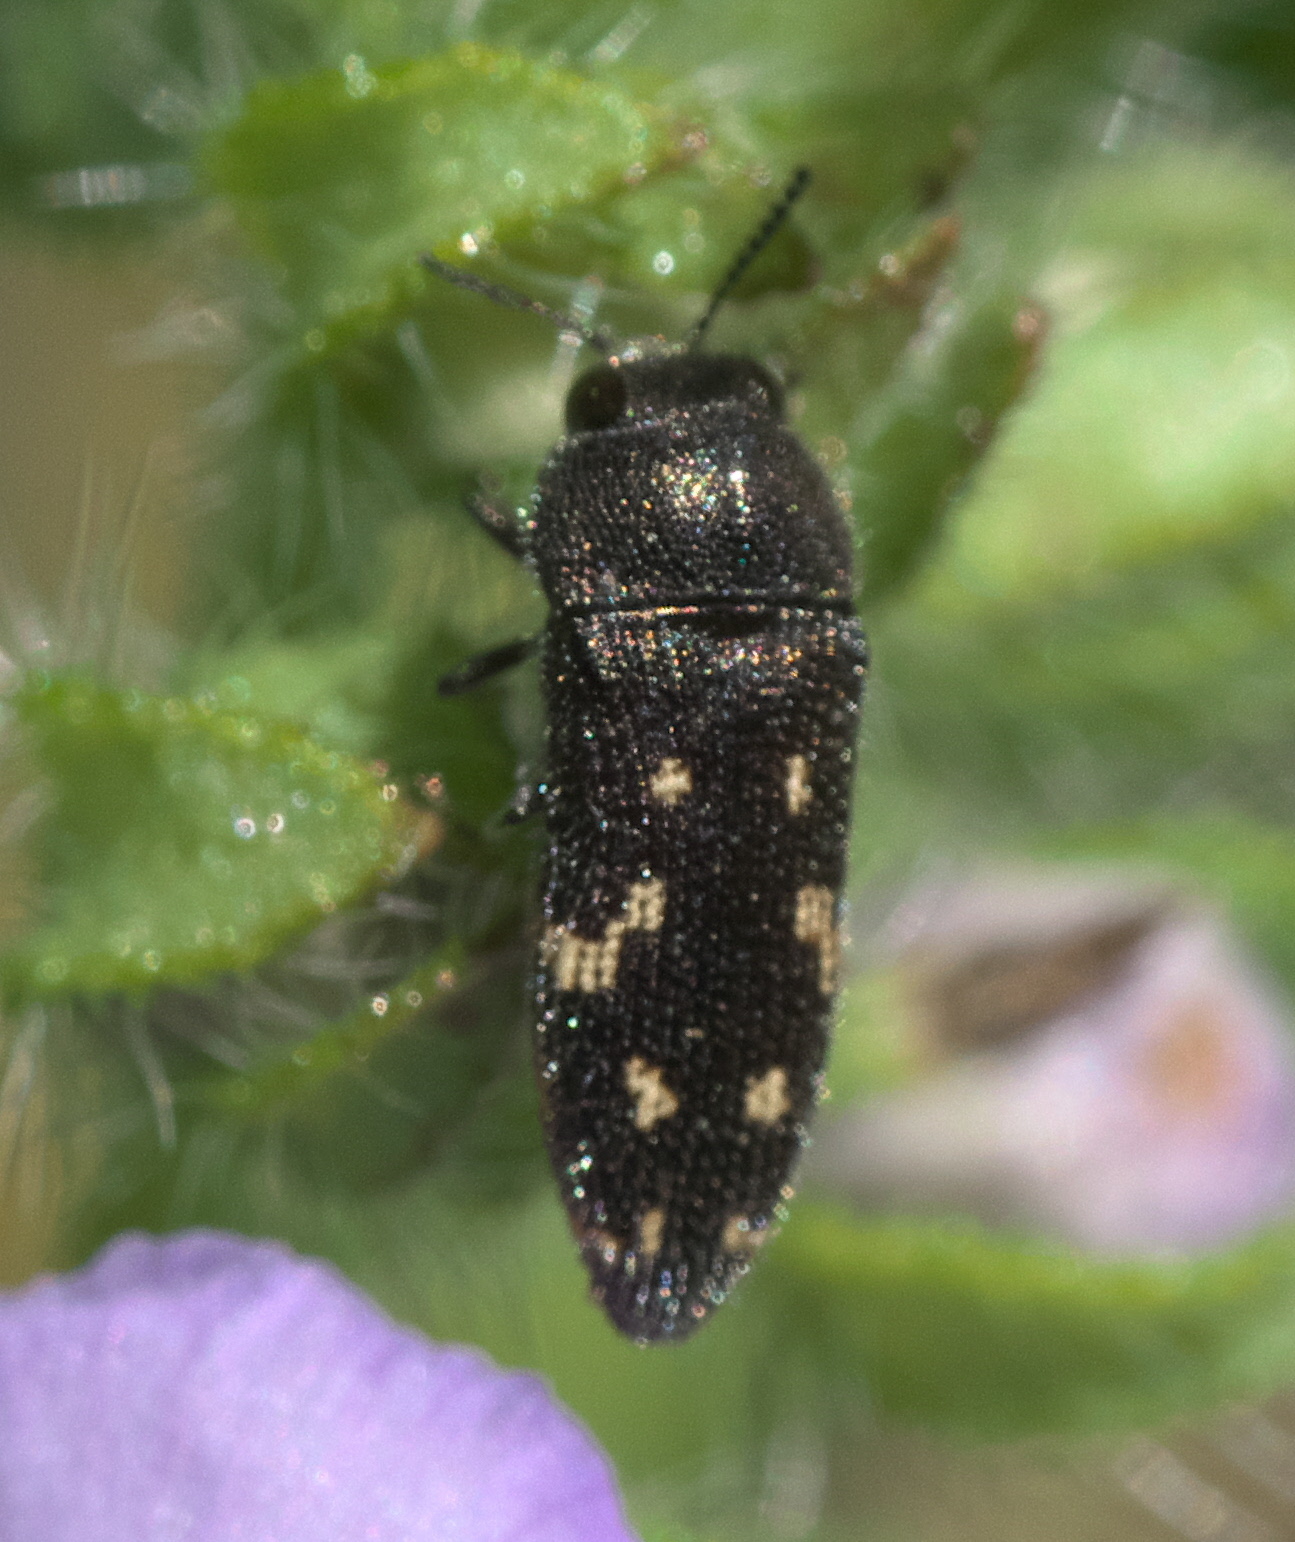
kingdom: Animalia
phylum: Arthropoda
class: Insecta
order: Coleoptera
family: Buprestidae
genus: Acmaeodera
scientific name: Acmaeodera tubulus
